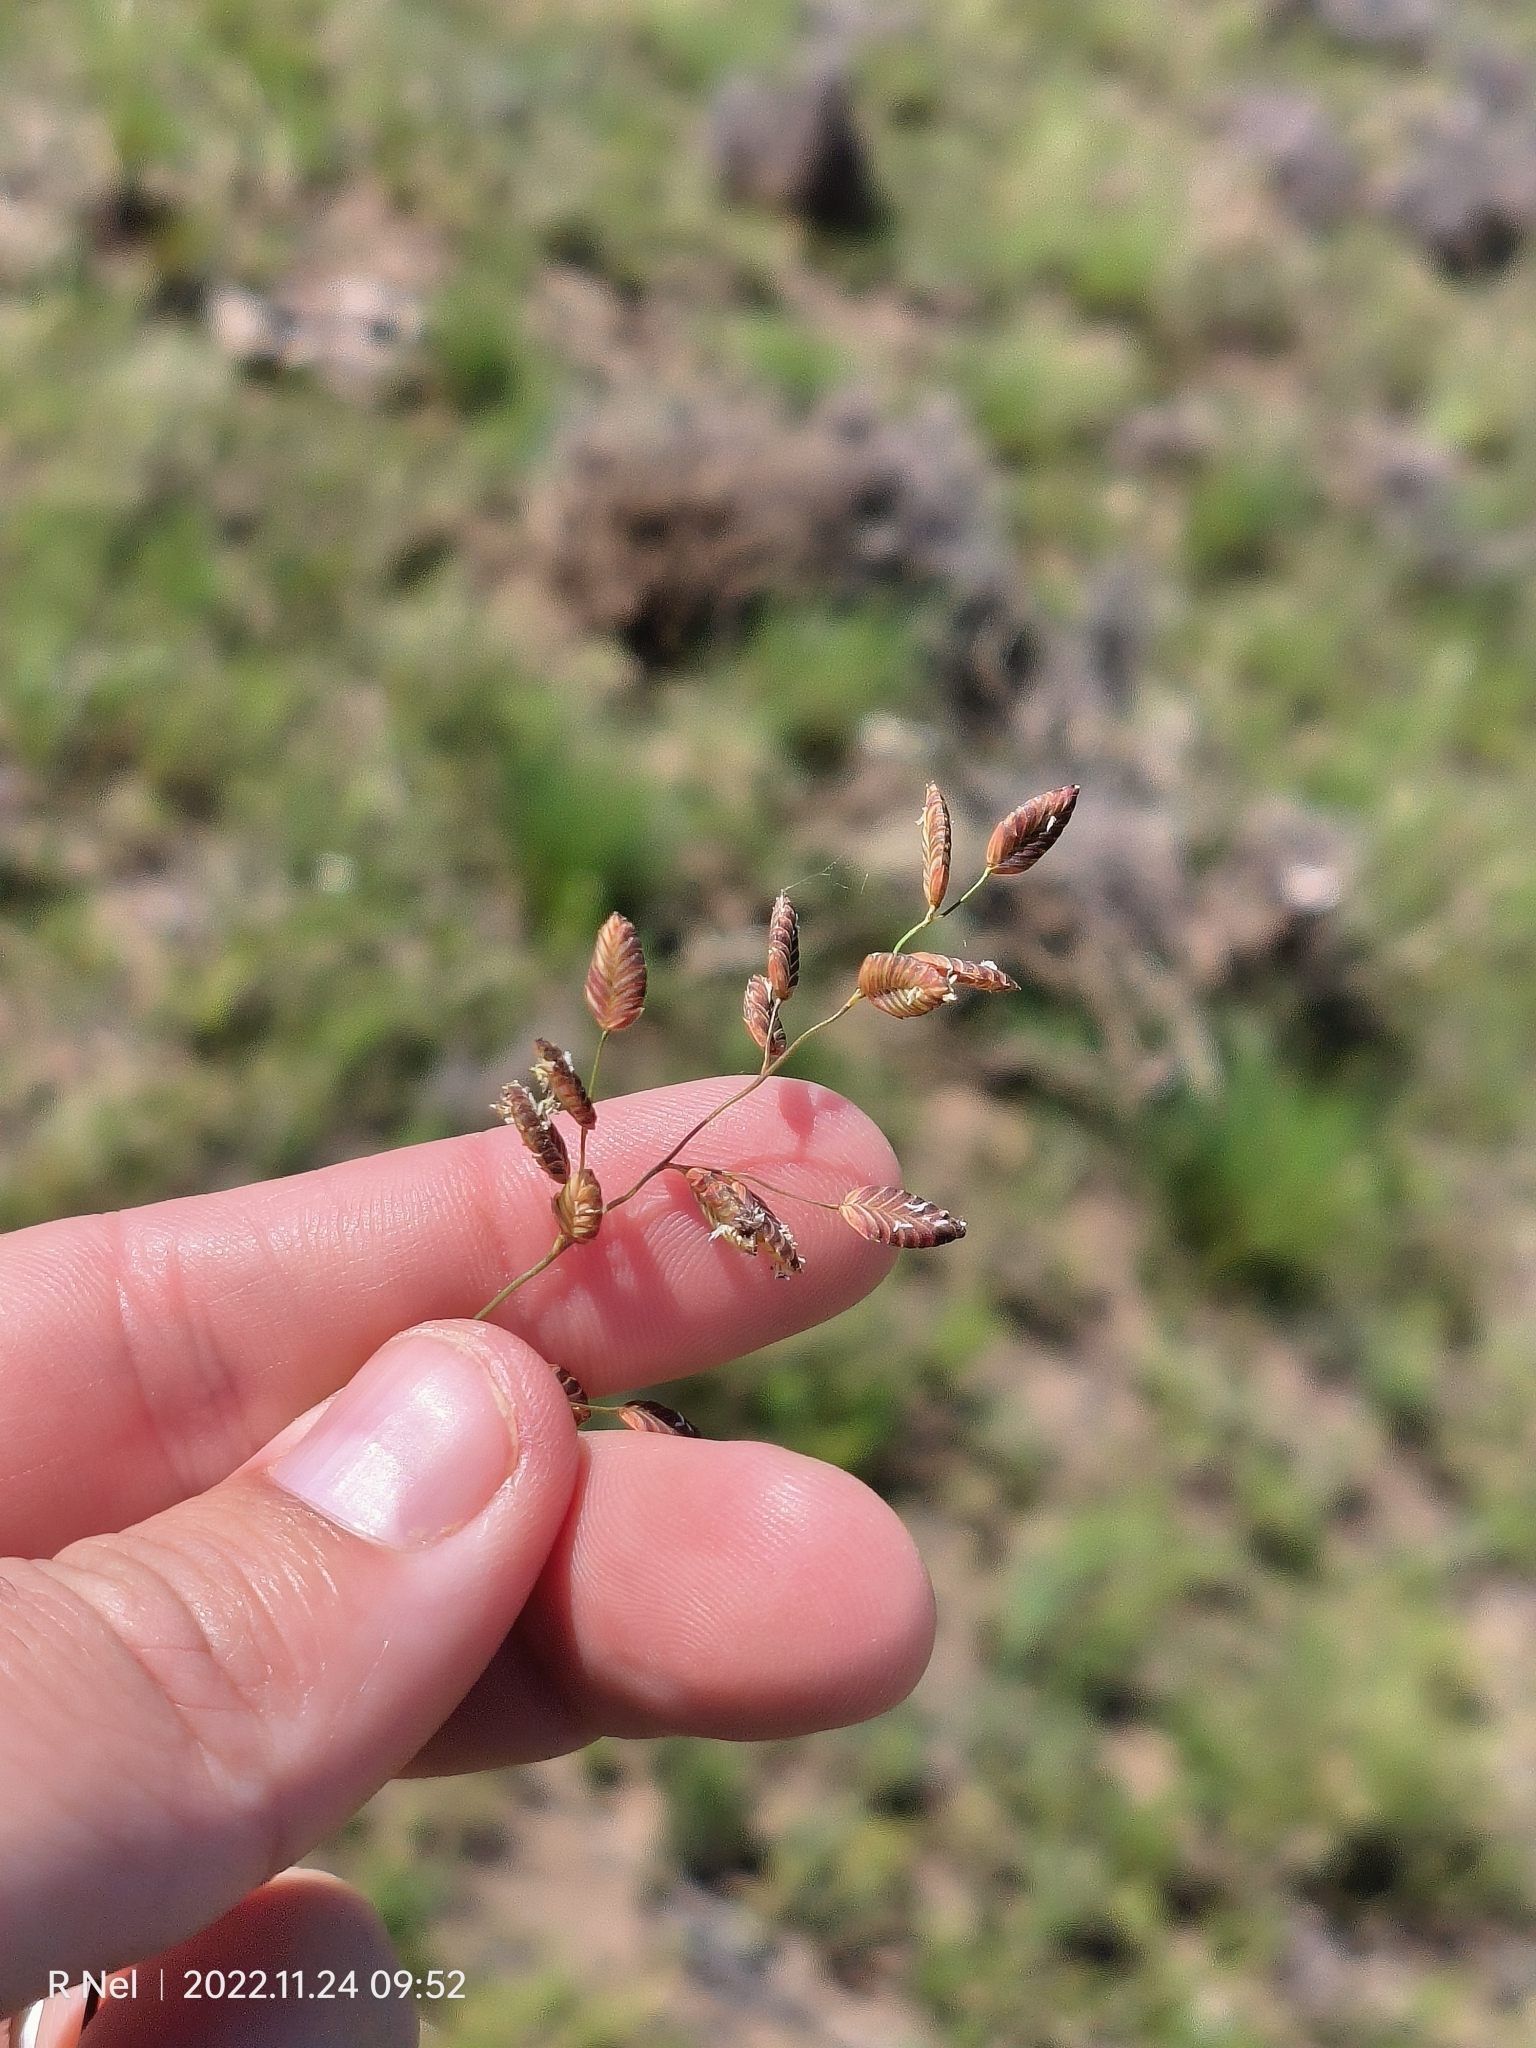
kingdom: Plantae
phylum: Tracheophyta
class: Liliopsida
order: Poales
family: Poaceae
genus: Eragrostis
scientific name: Eragrostis capensis
